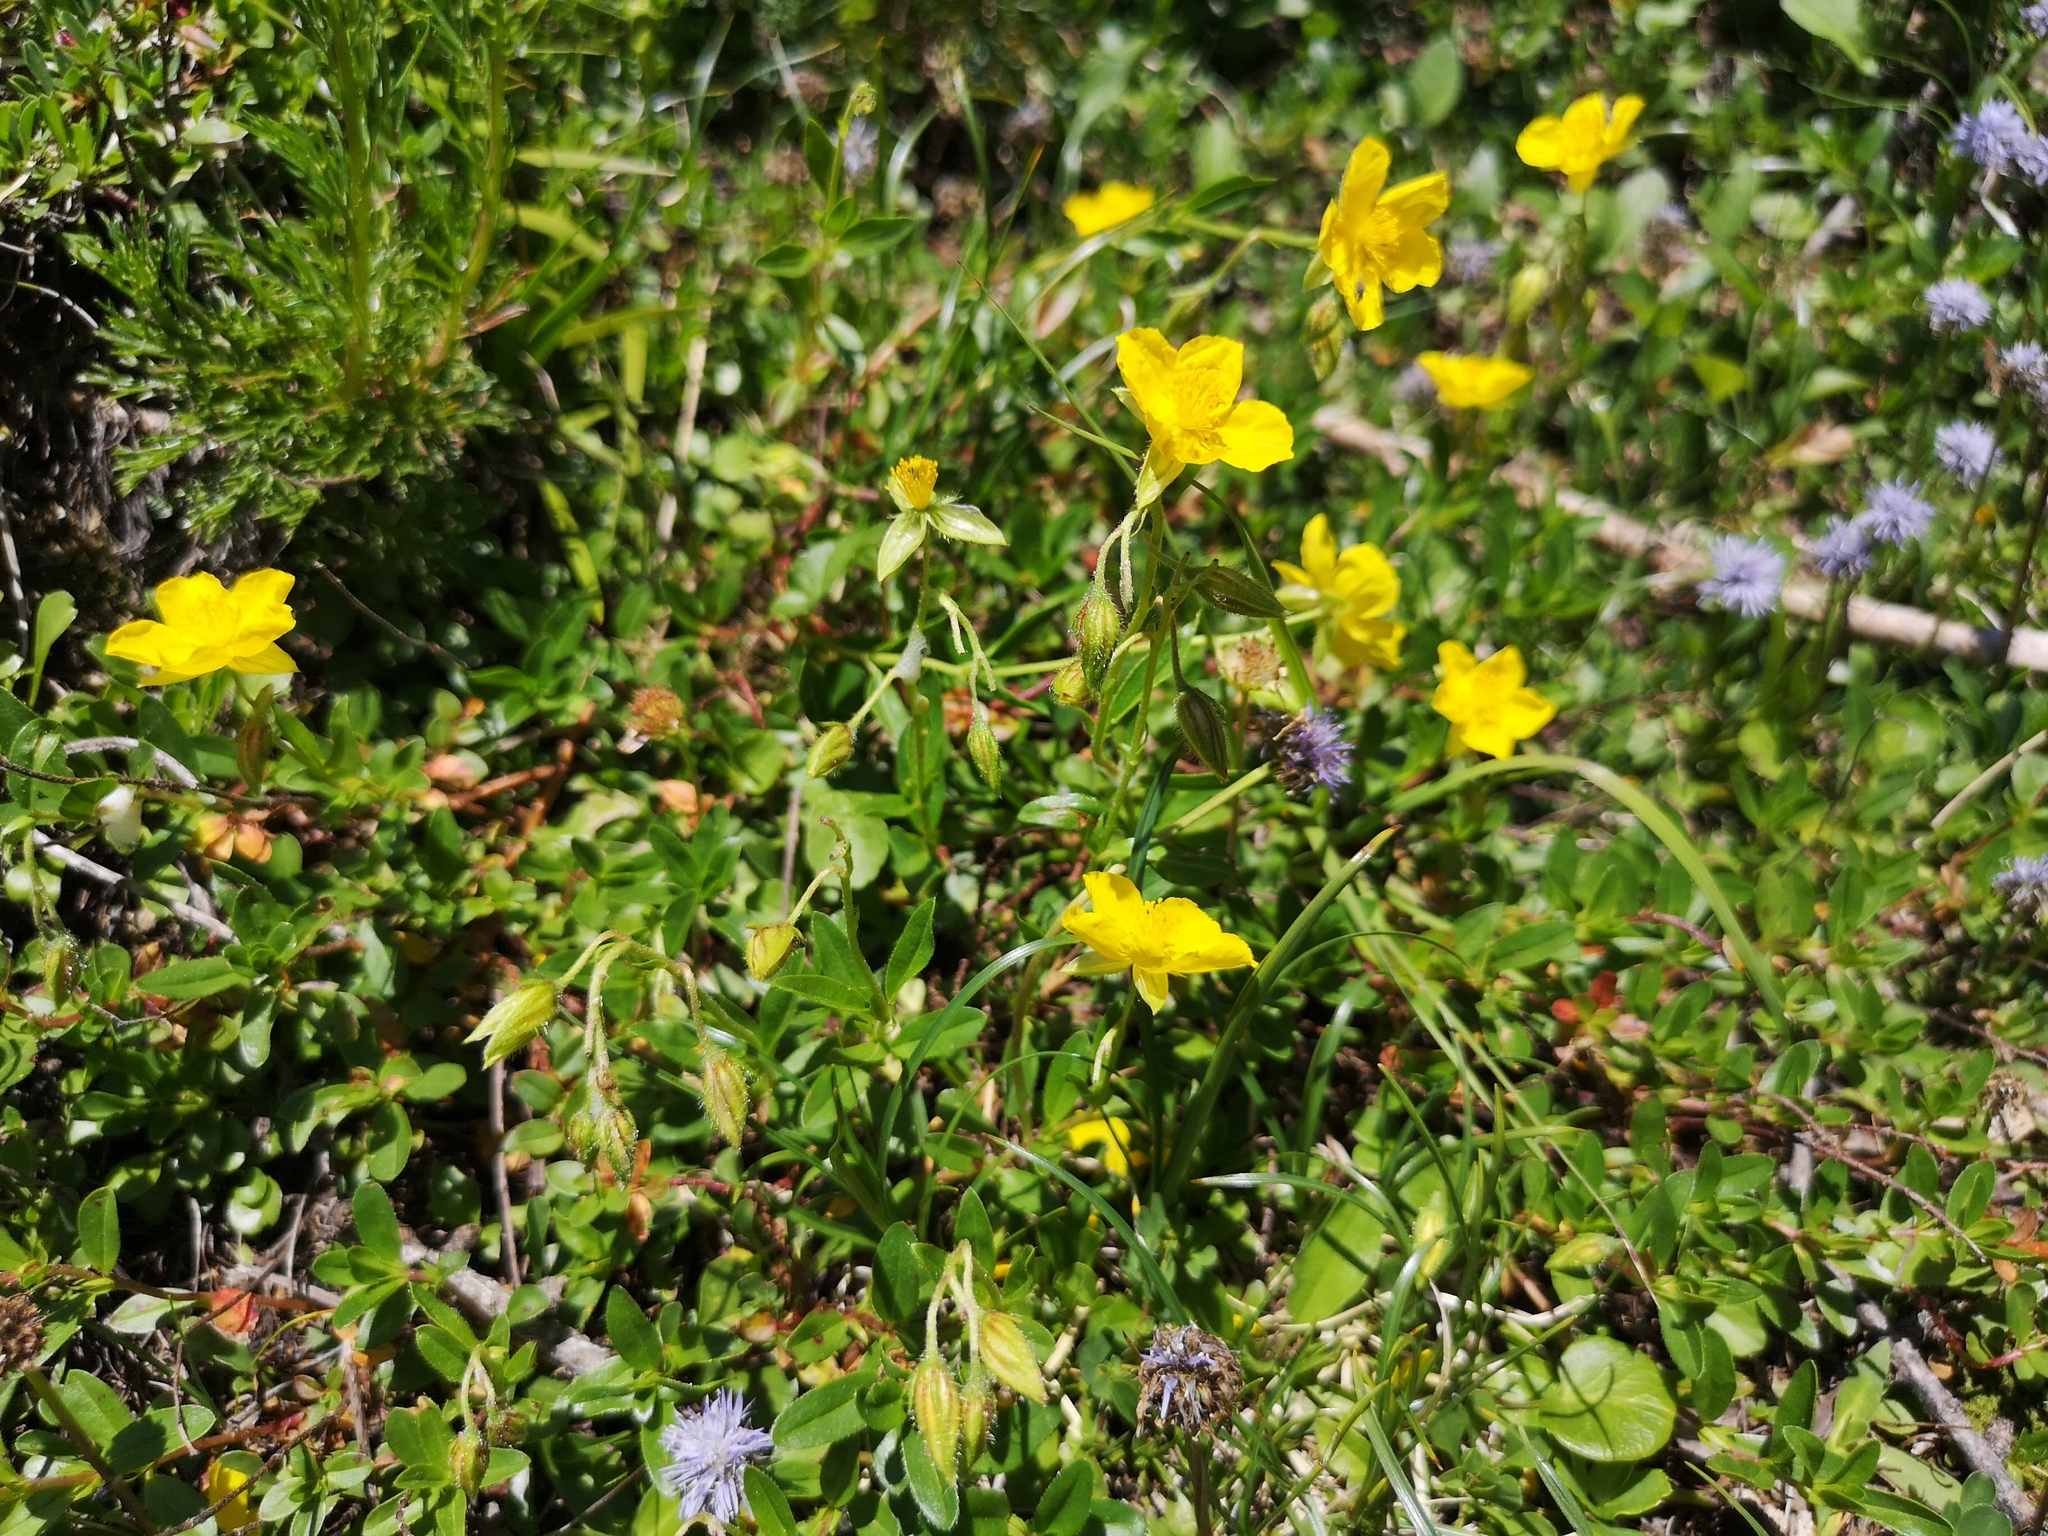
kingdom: Plantae
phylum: Tracheophyta
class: Magnoliopsida
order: Malvales
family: Cistaceae
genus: Helianthemum
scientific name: Helianthemum nummularium
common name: Common rock-rose
